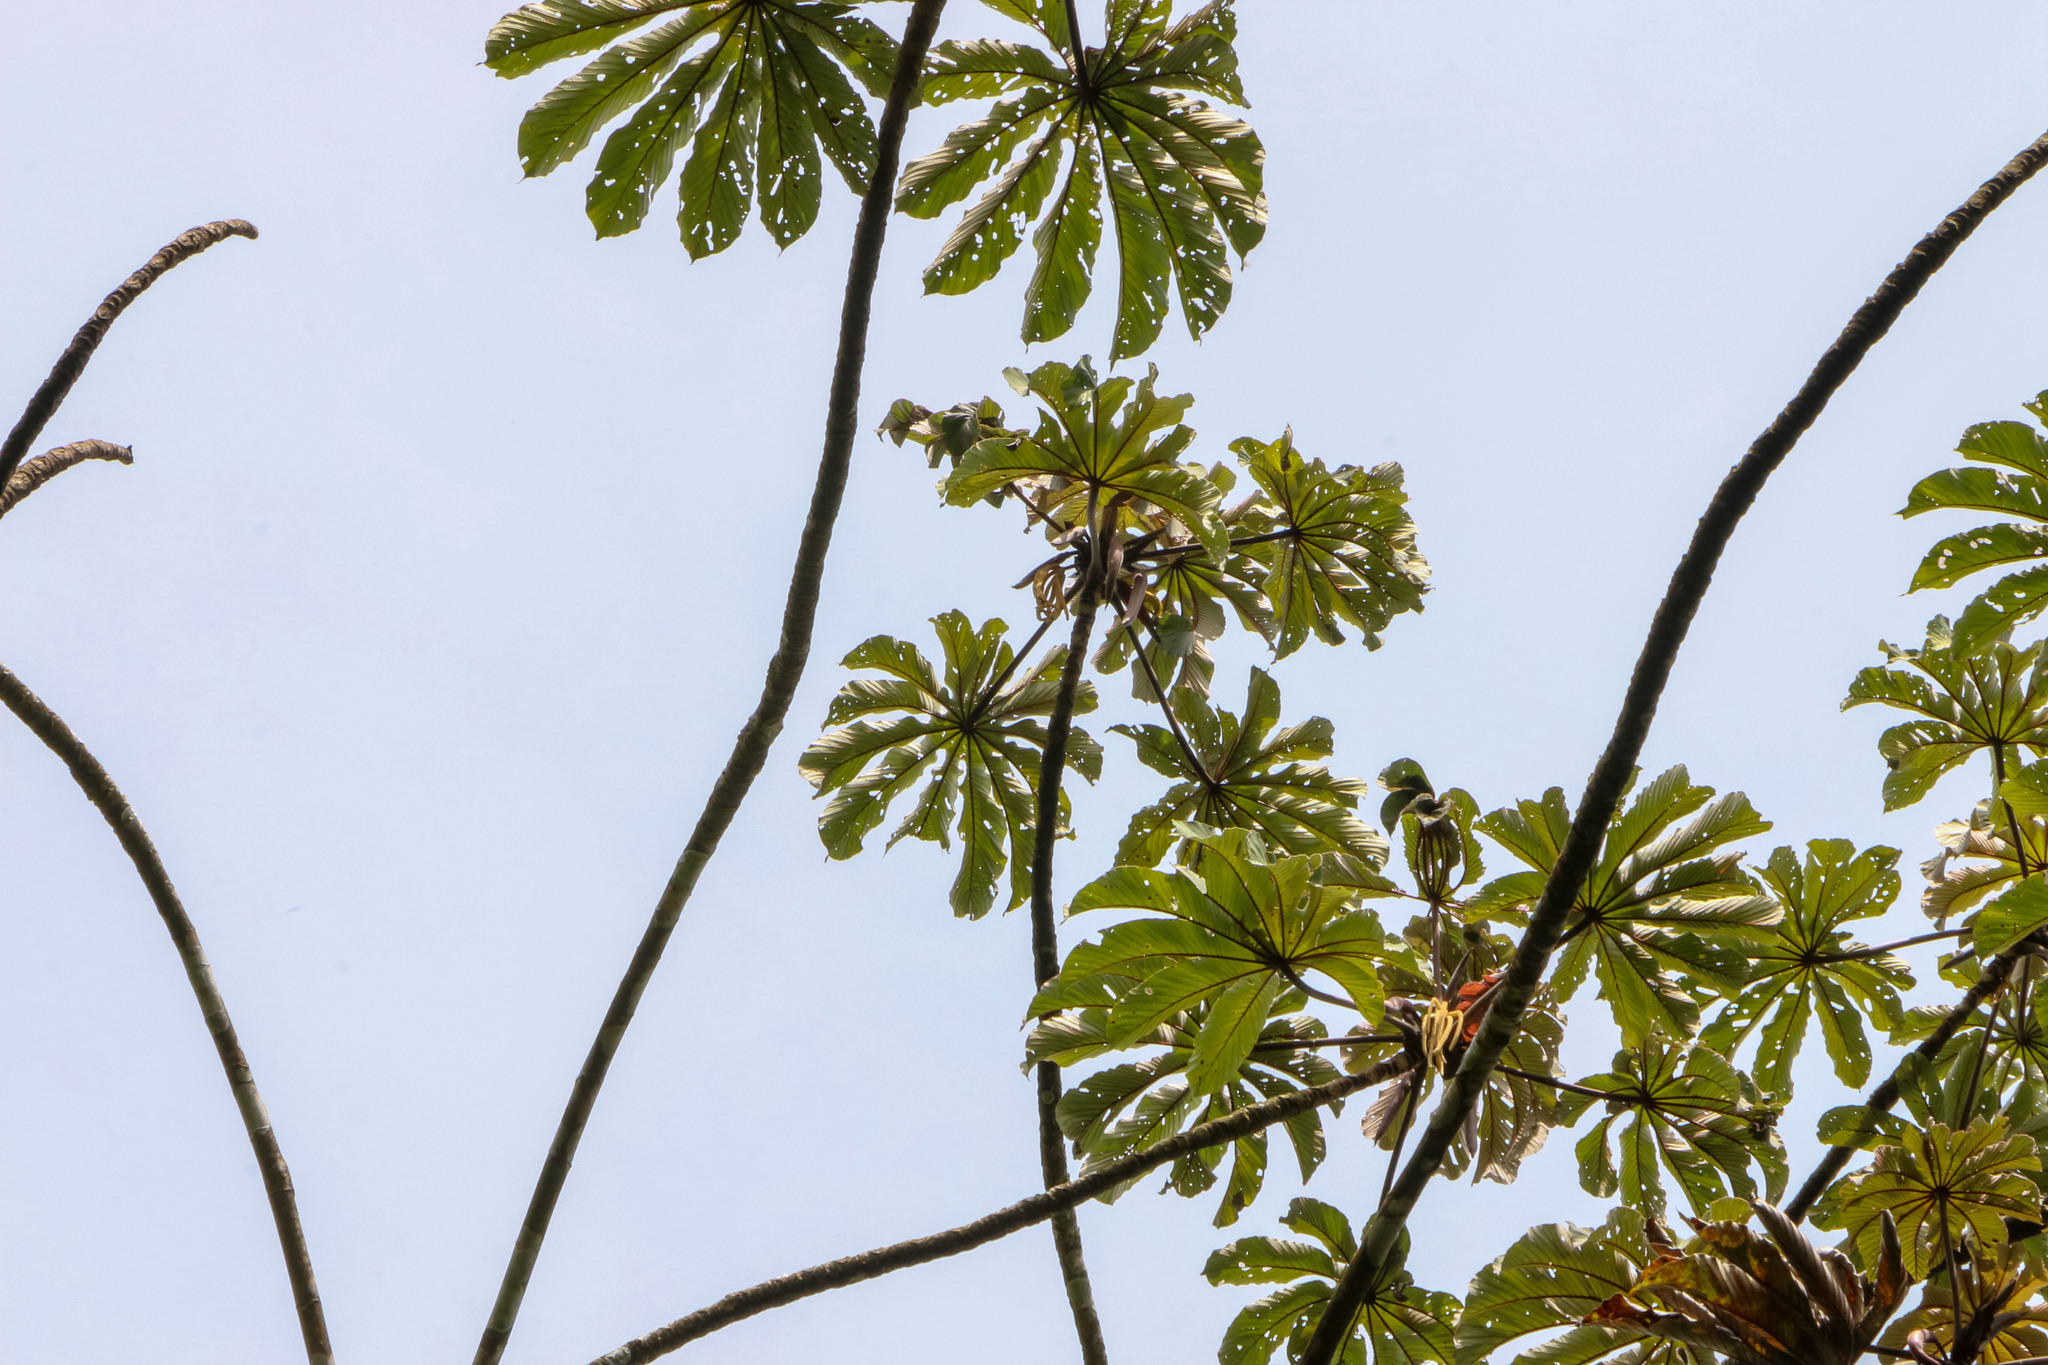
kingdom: Plantae
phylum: Tracheophyta
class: Magnoliopsida
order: Rosales
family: Urticaceae
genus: Cecropia
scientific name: Cecropia obtusifolia
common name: Trumpet tree
